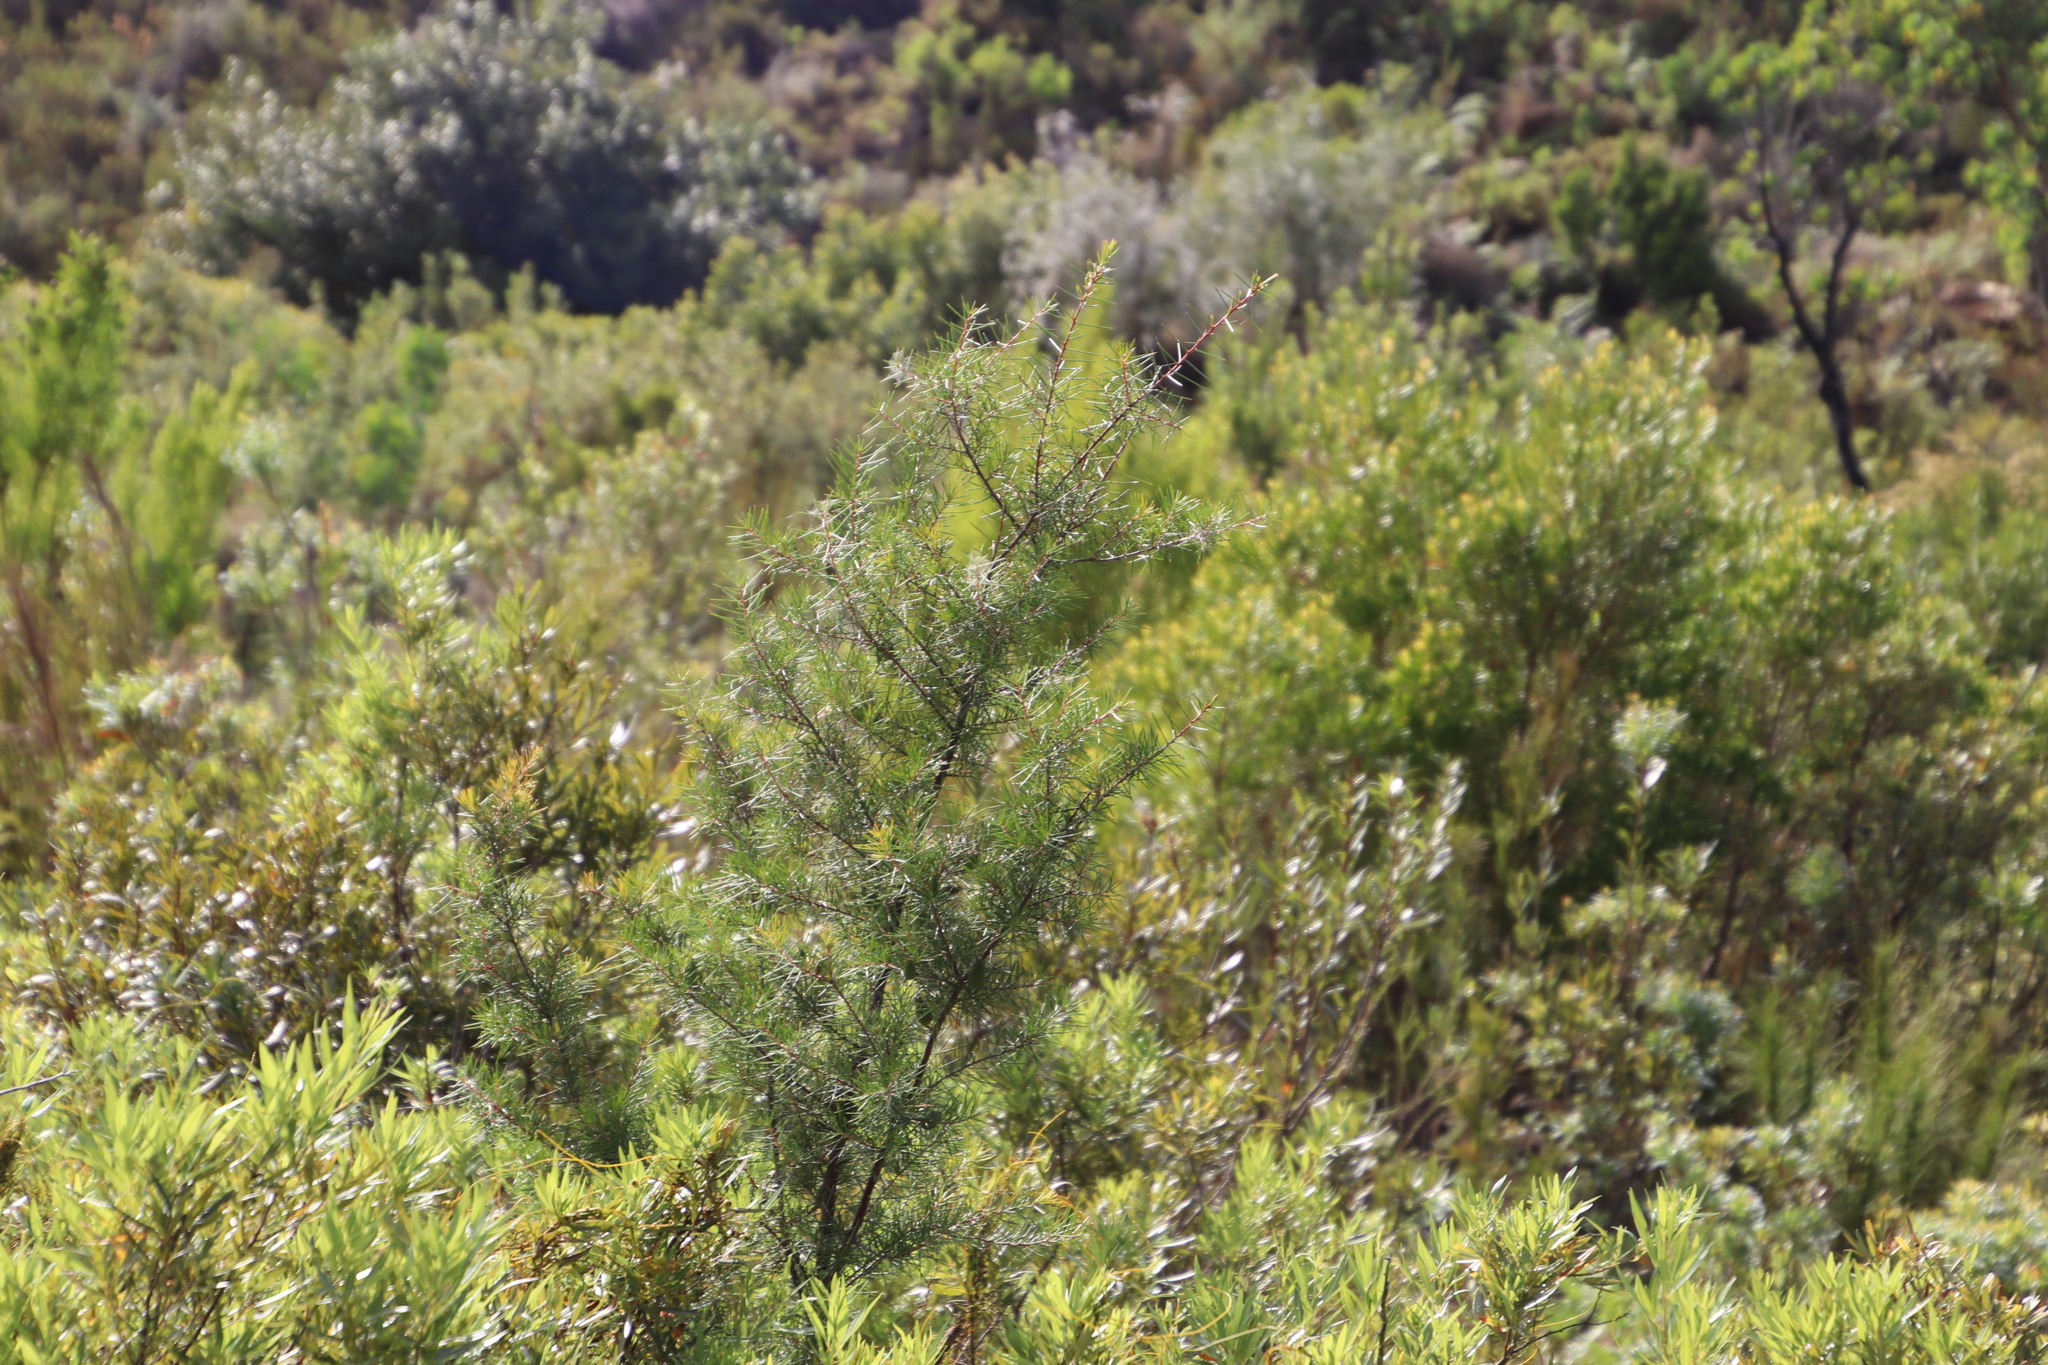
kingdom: Plantae
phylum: Tracheophyta
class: Magnoliopsida
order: Proteales
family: Proteaceae
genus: Hakea
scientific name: Hakea sericea
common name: Needle bush
